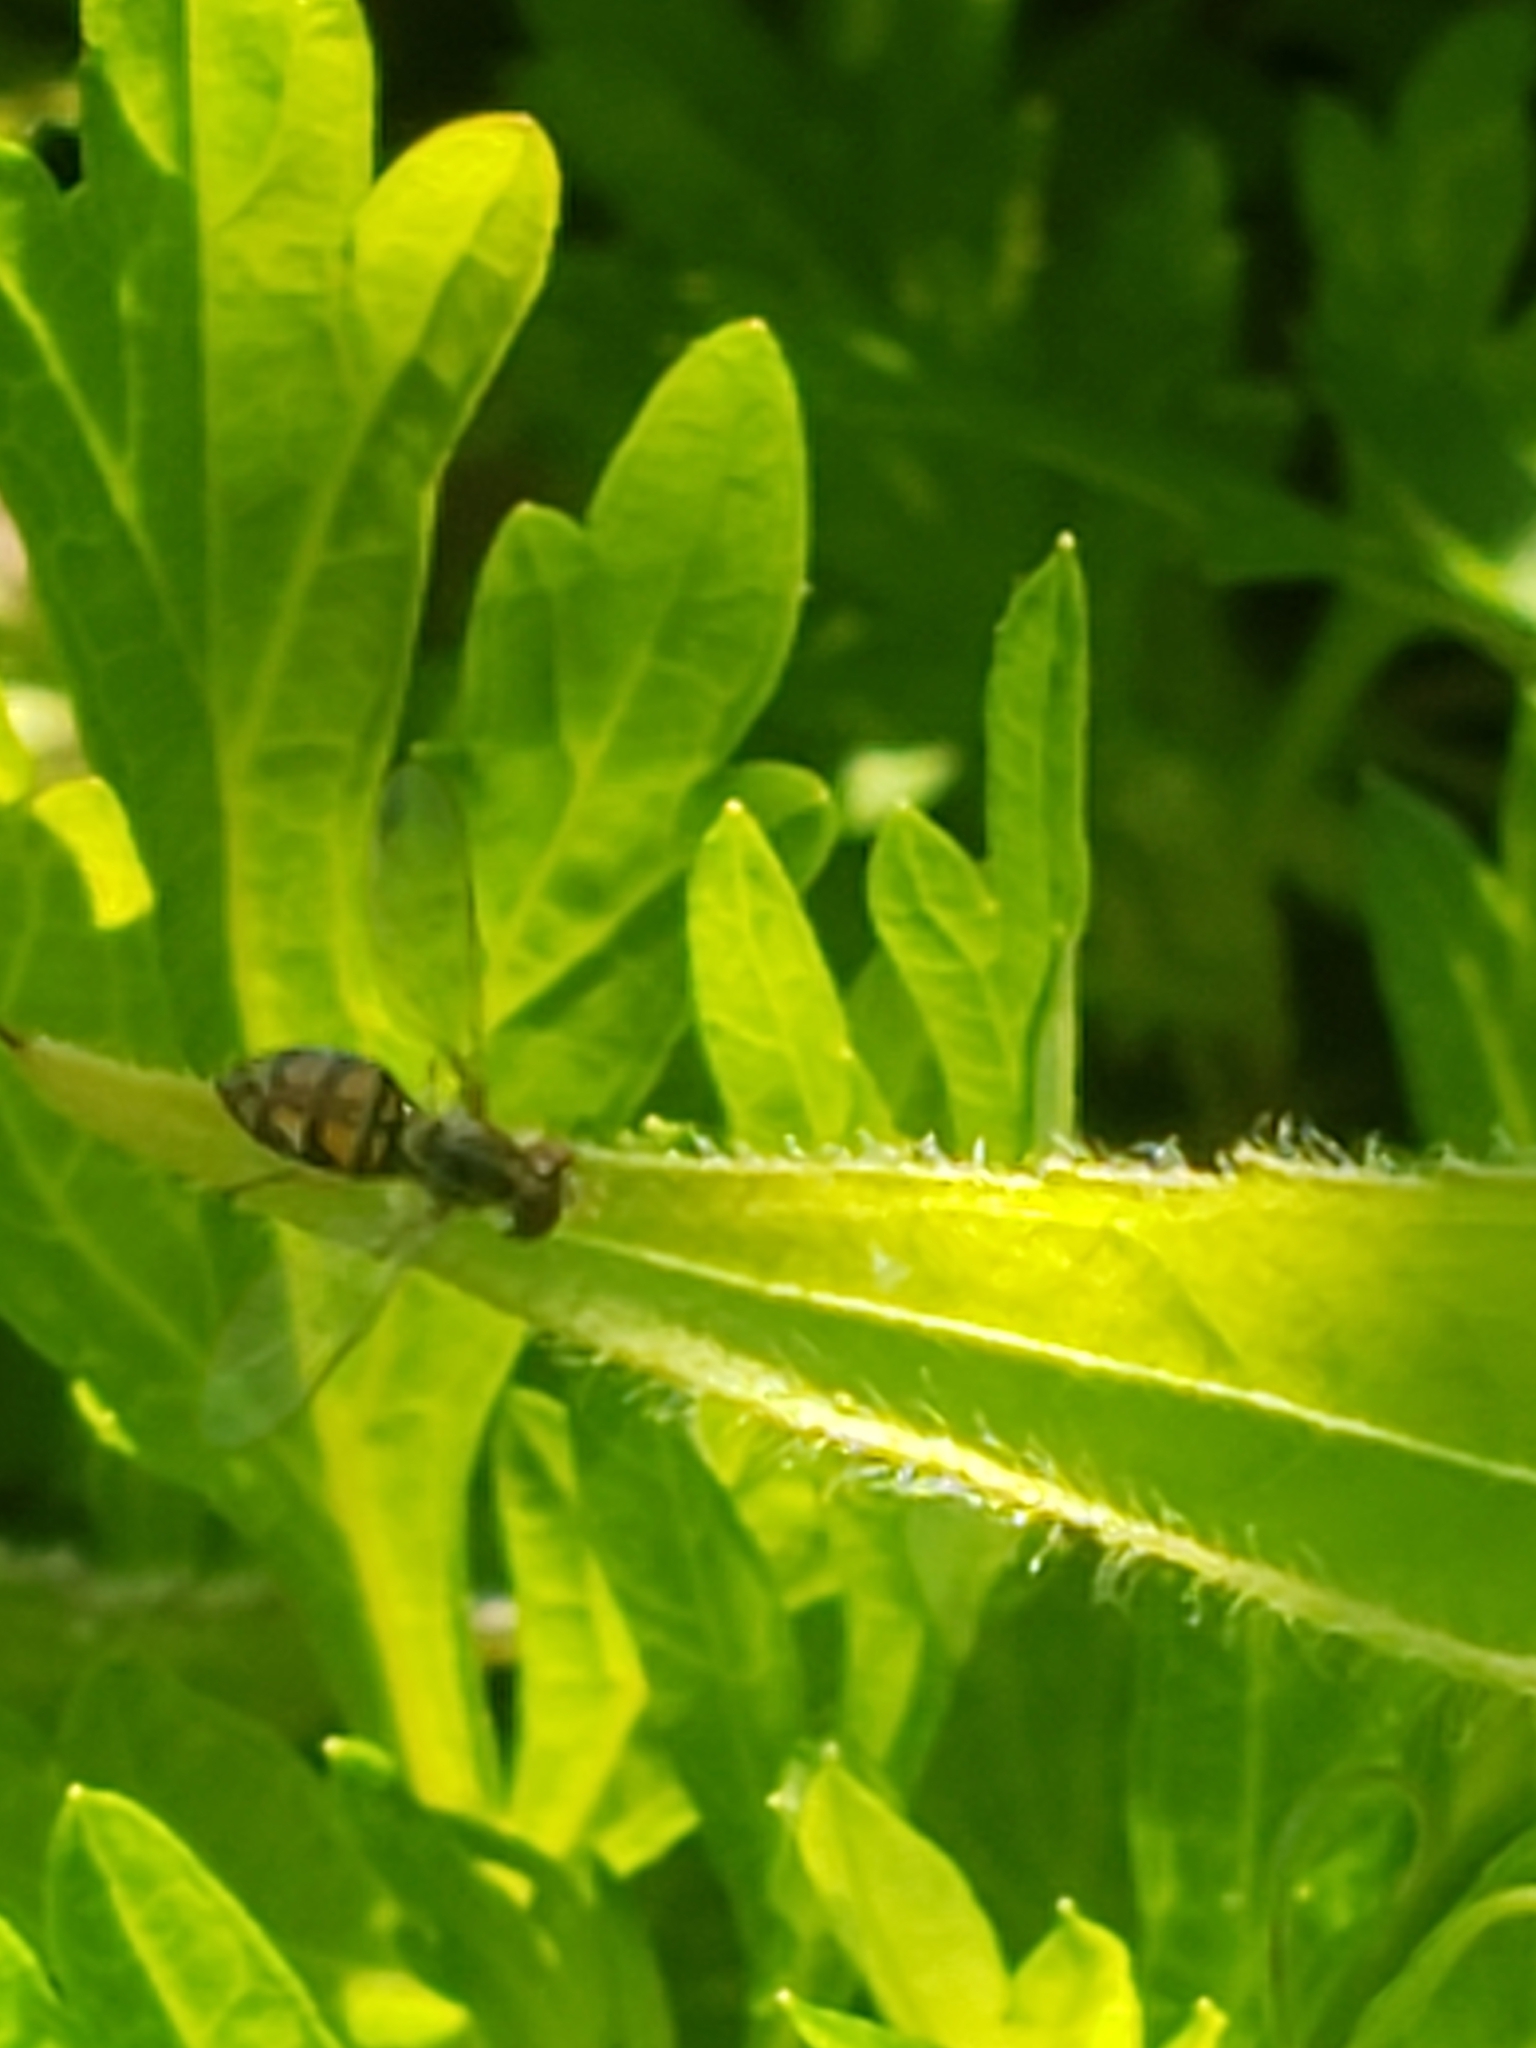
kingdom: Animalia
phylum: Arthropoda
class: Insecta
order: Diptera
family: Syrphidae
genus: Toxomerus
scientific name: Toxomerus marginatus
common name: Syrphid fly
